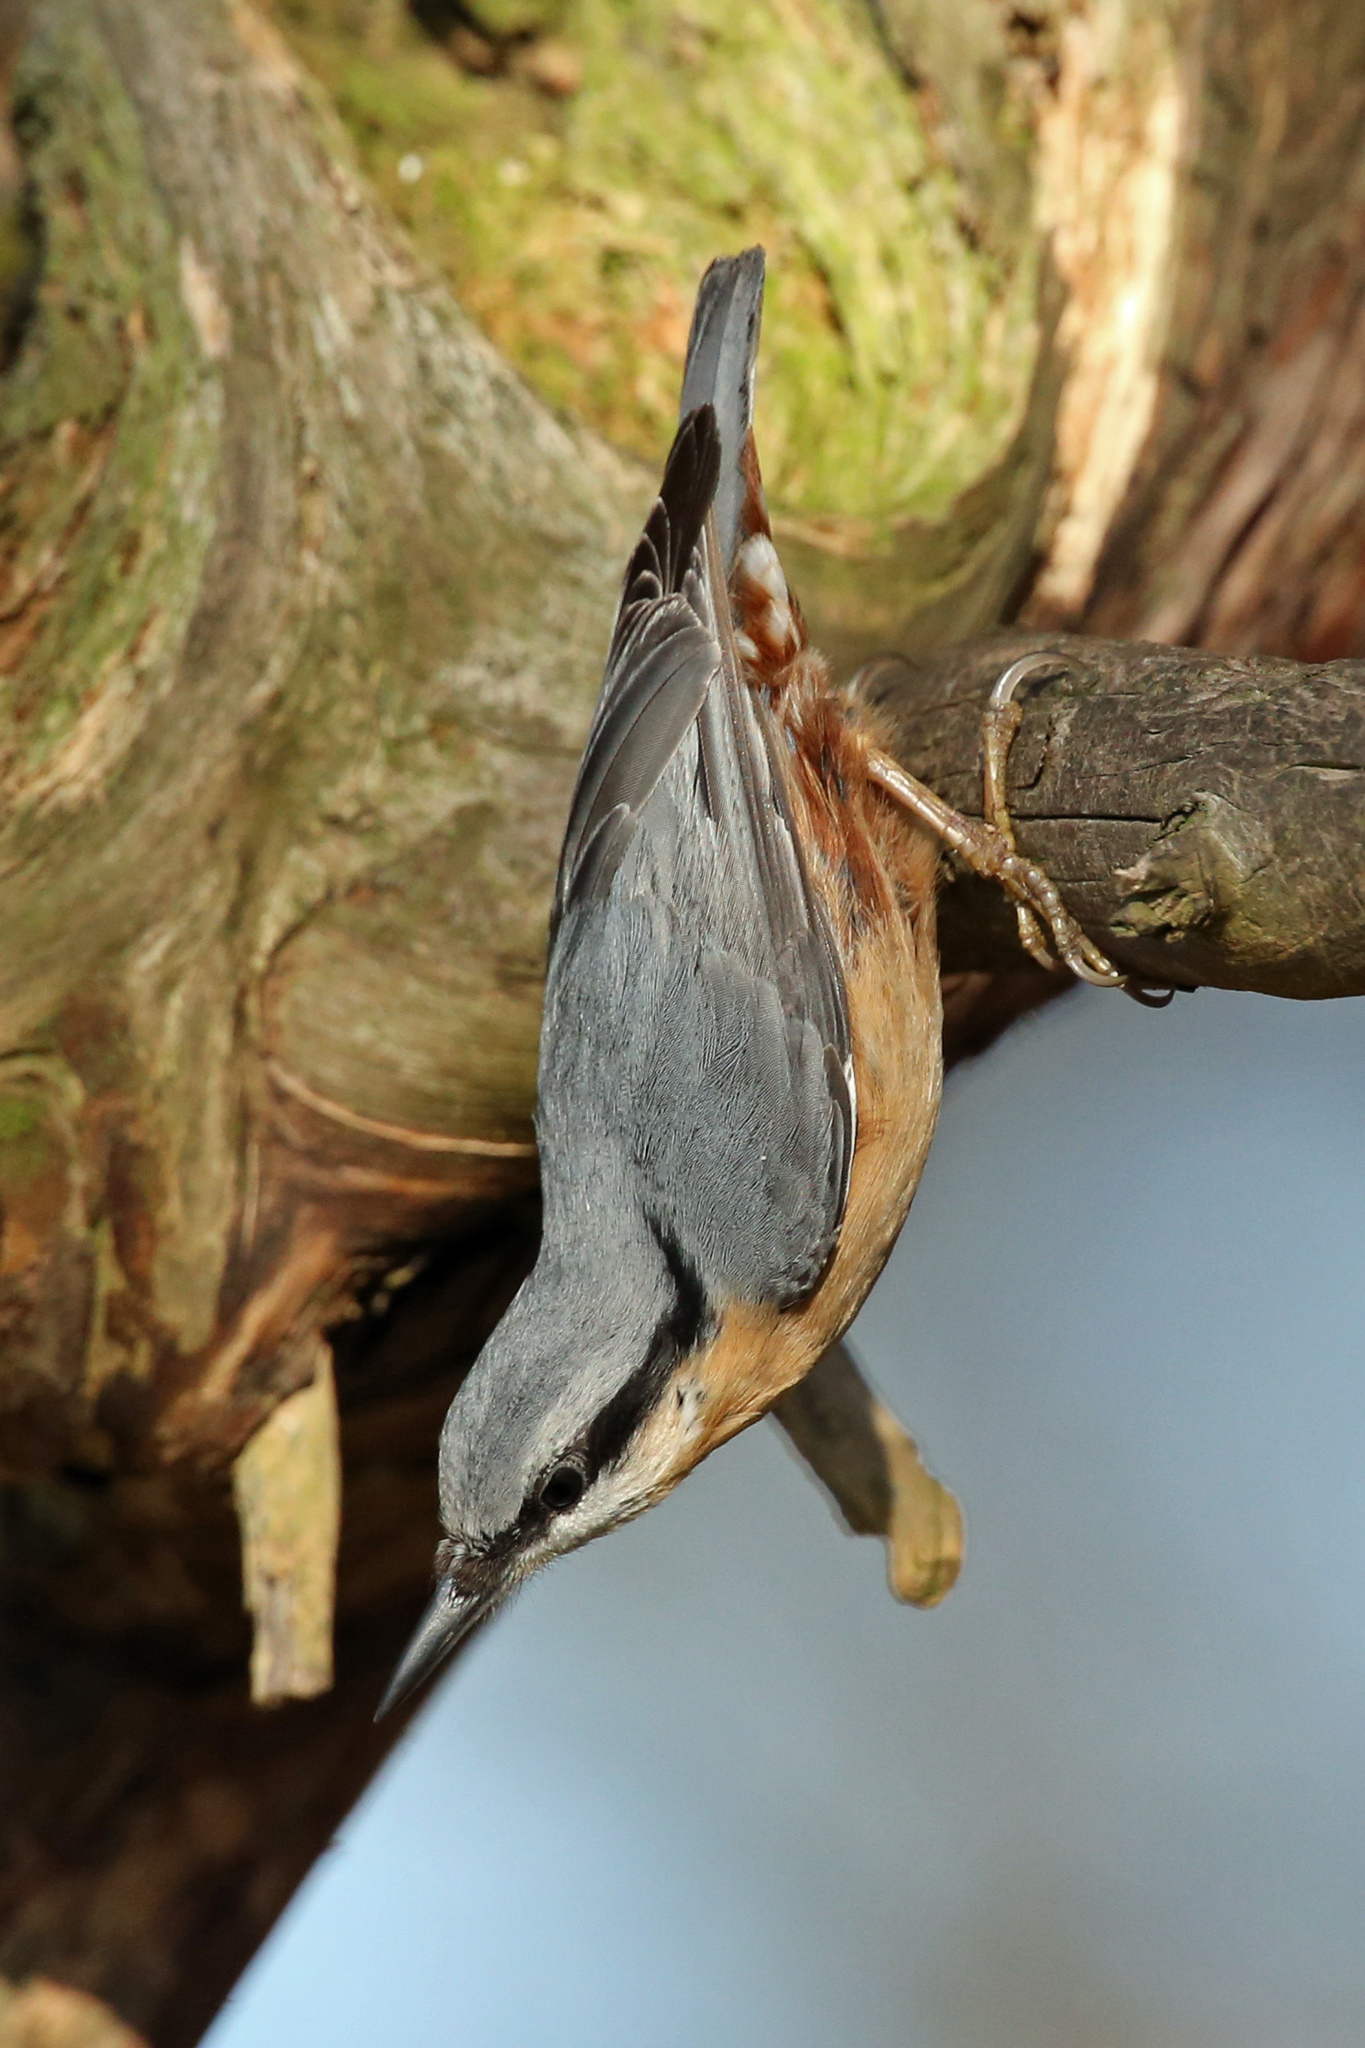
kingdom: Animalia
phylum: Chordata
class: Aves
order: Passeriformes
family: Sittidae
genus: Sitta
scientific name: Sitta europaea
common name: Eurasian nuthatch
